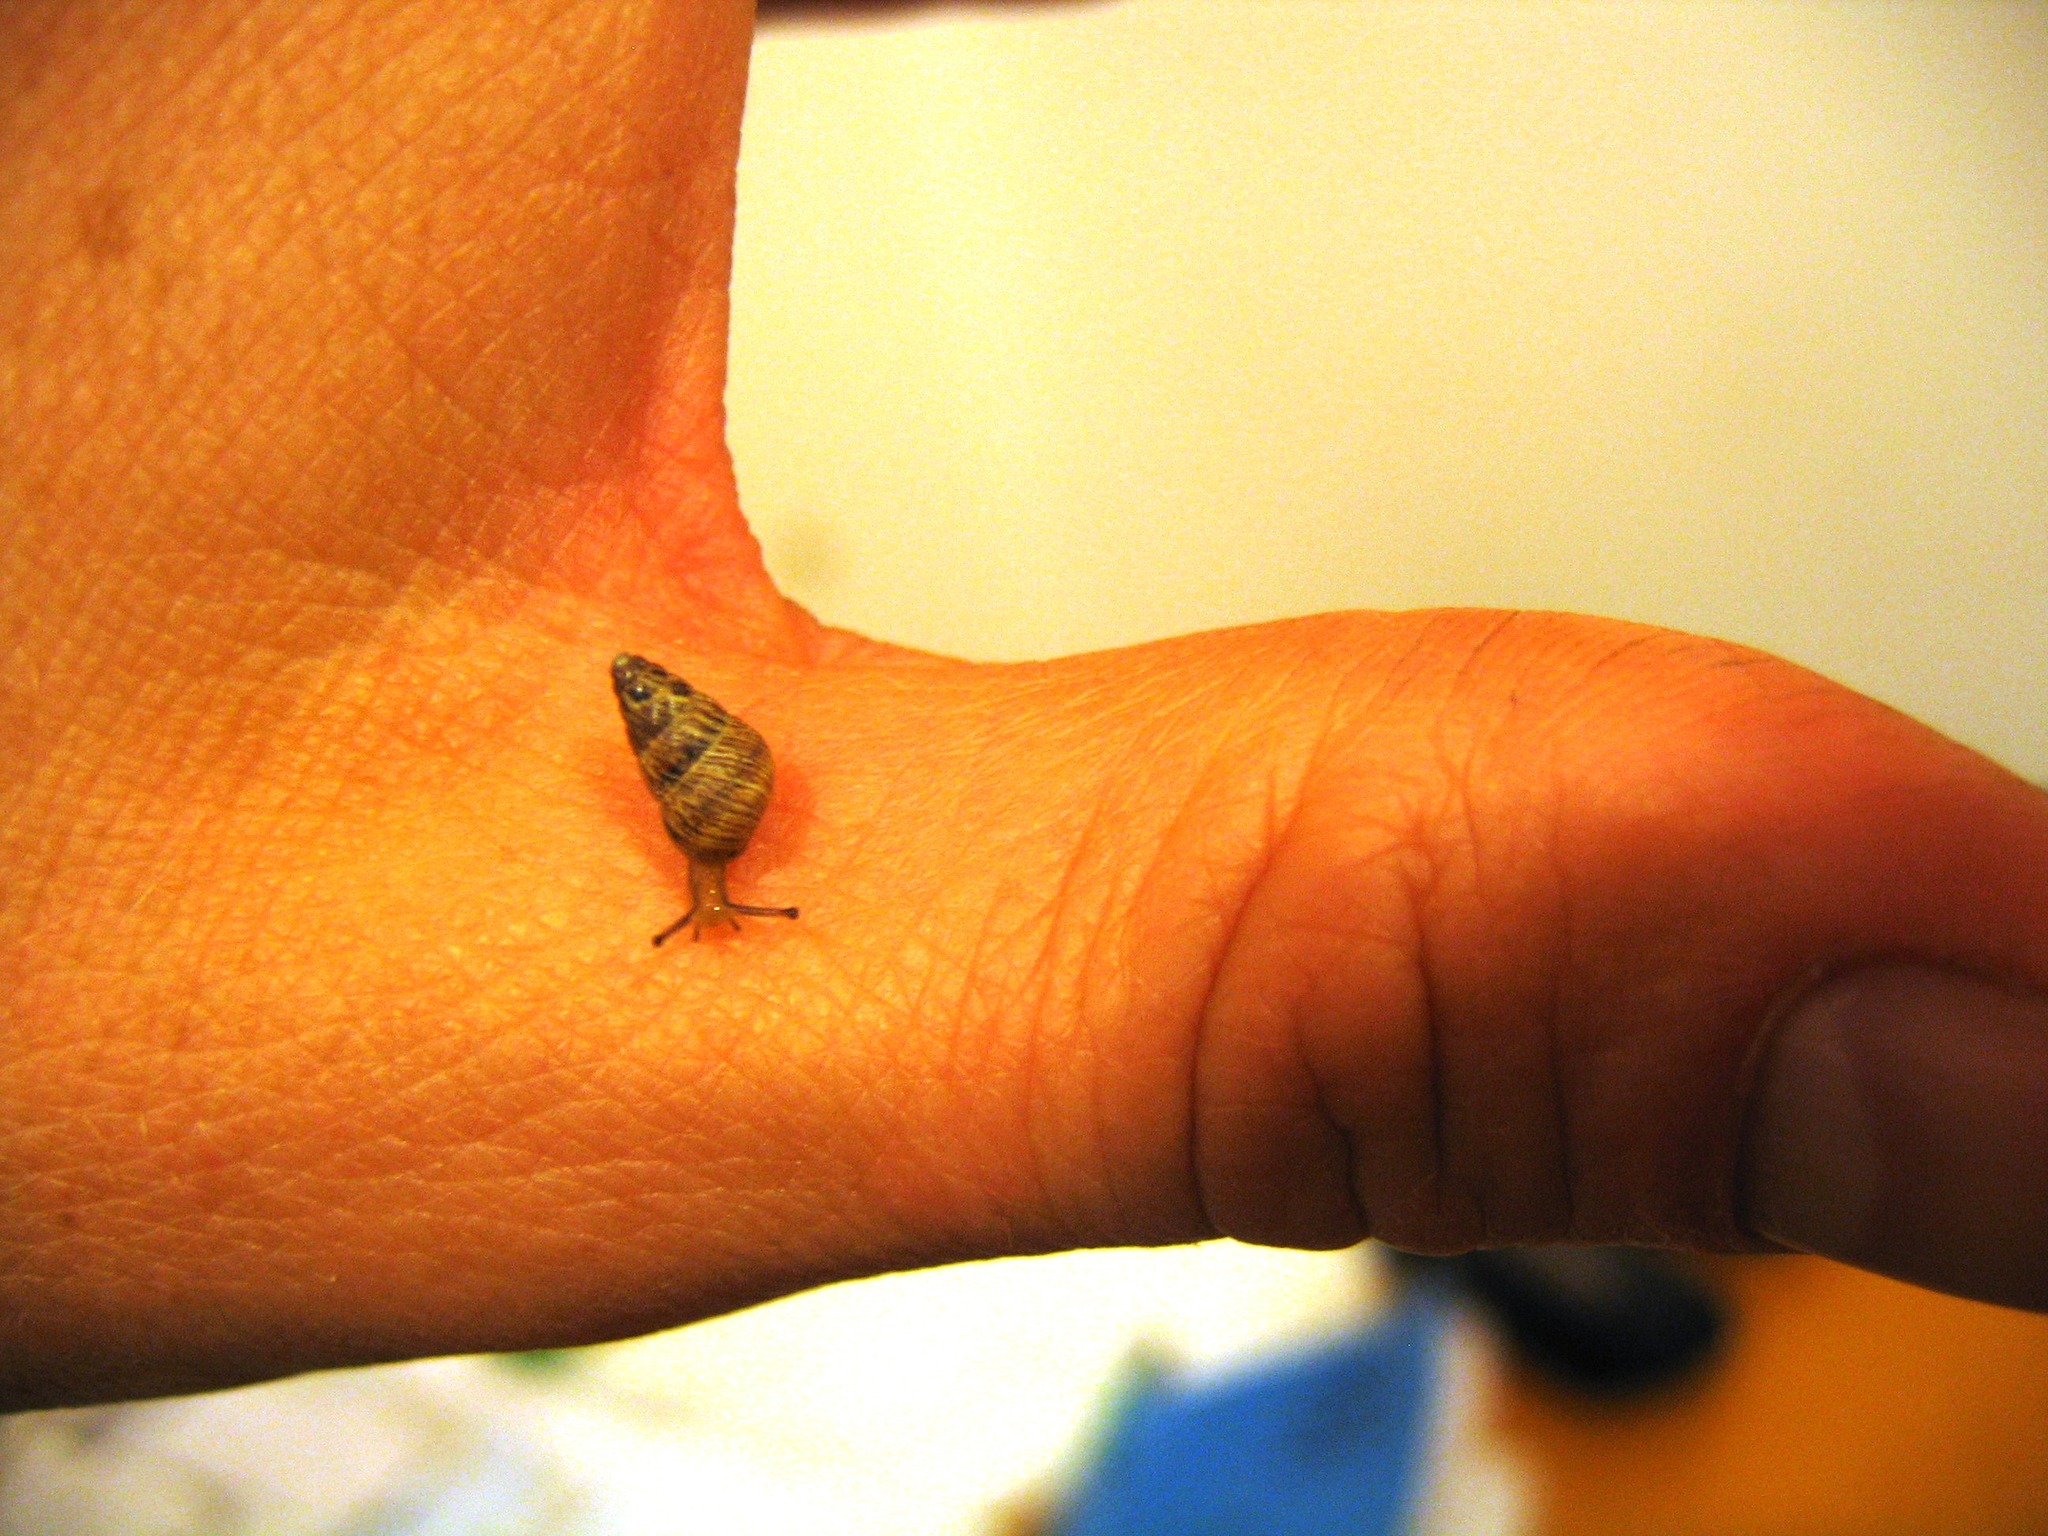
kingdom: Animalia
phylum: Mollusca
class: Gastropoda
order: Stylommatophora
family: Geomitridae
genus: Cochlicella
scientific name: Cochlicella barbara
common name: Potbellied helicellid
